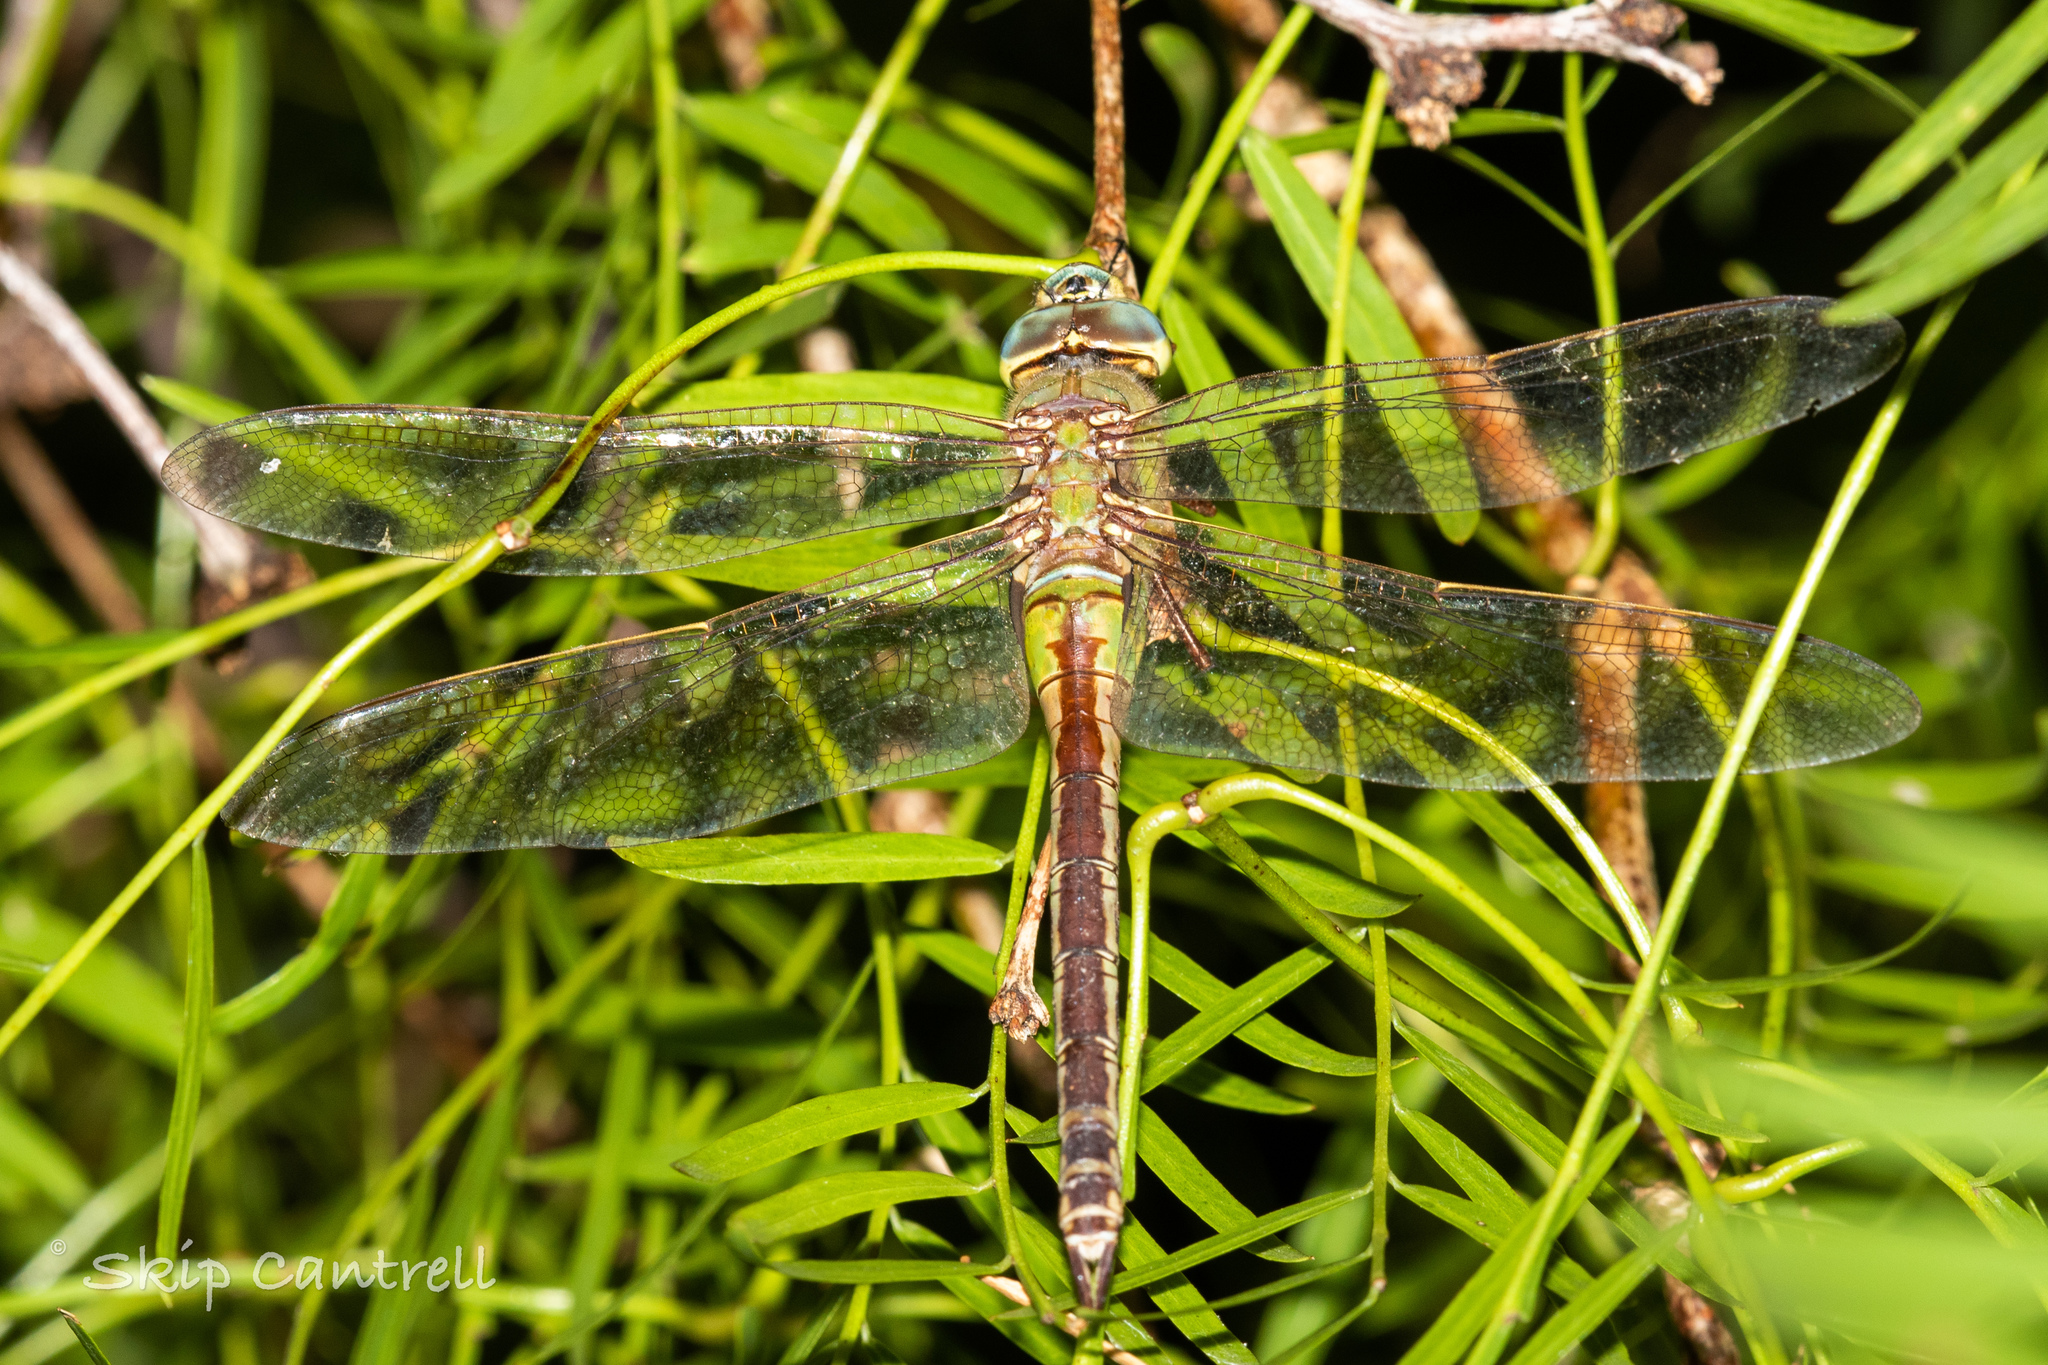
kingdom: Animalia
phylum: Arthropoda
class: Insecta
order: Odonata
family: Aeshnidae
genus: Anax
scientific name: Anax junius
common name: Common green darner
